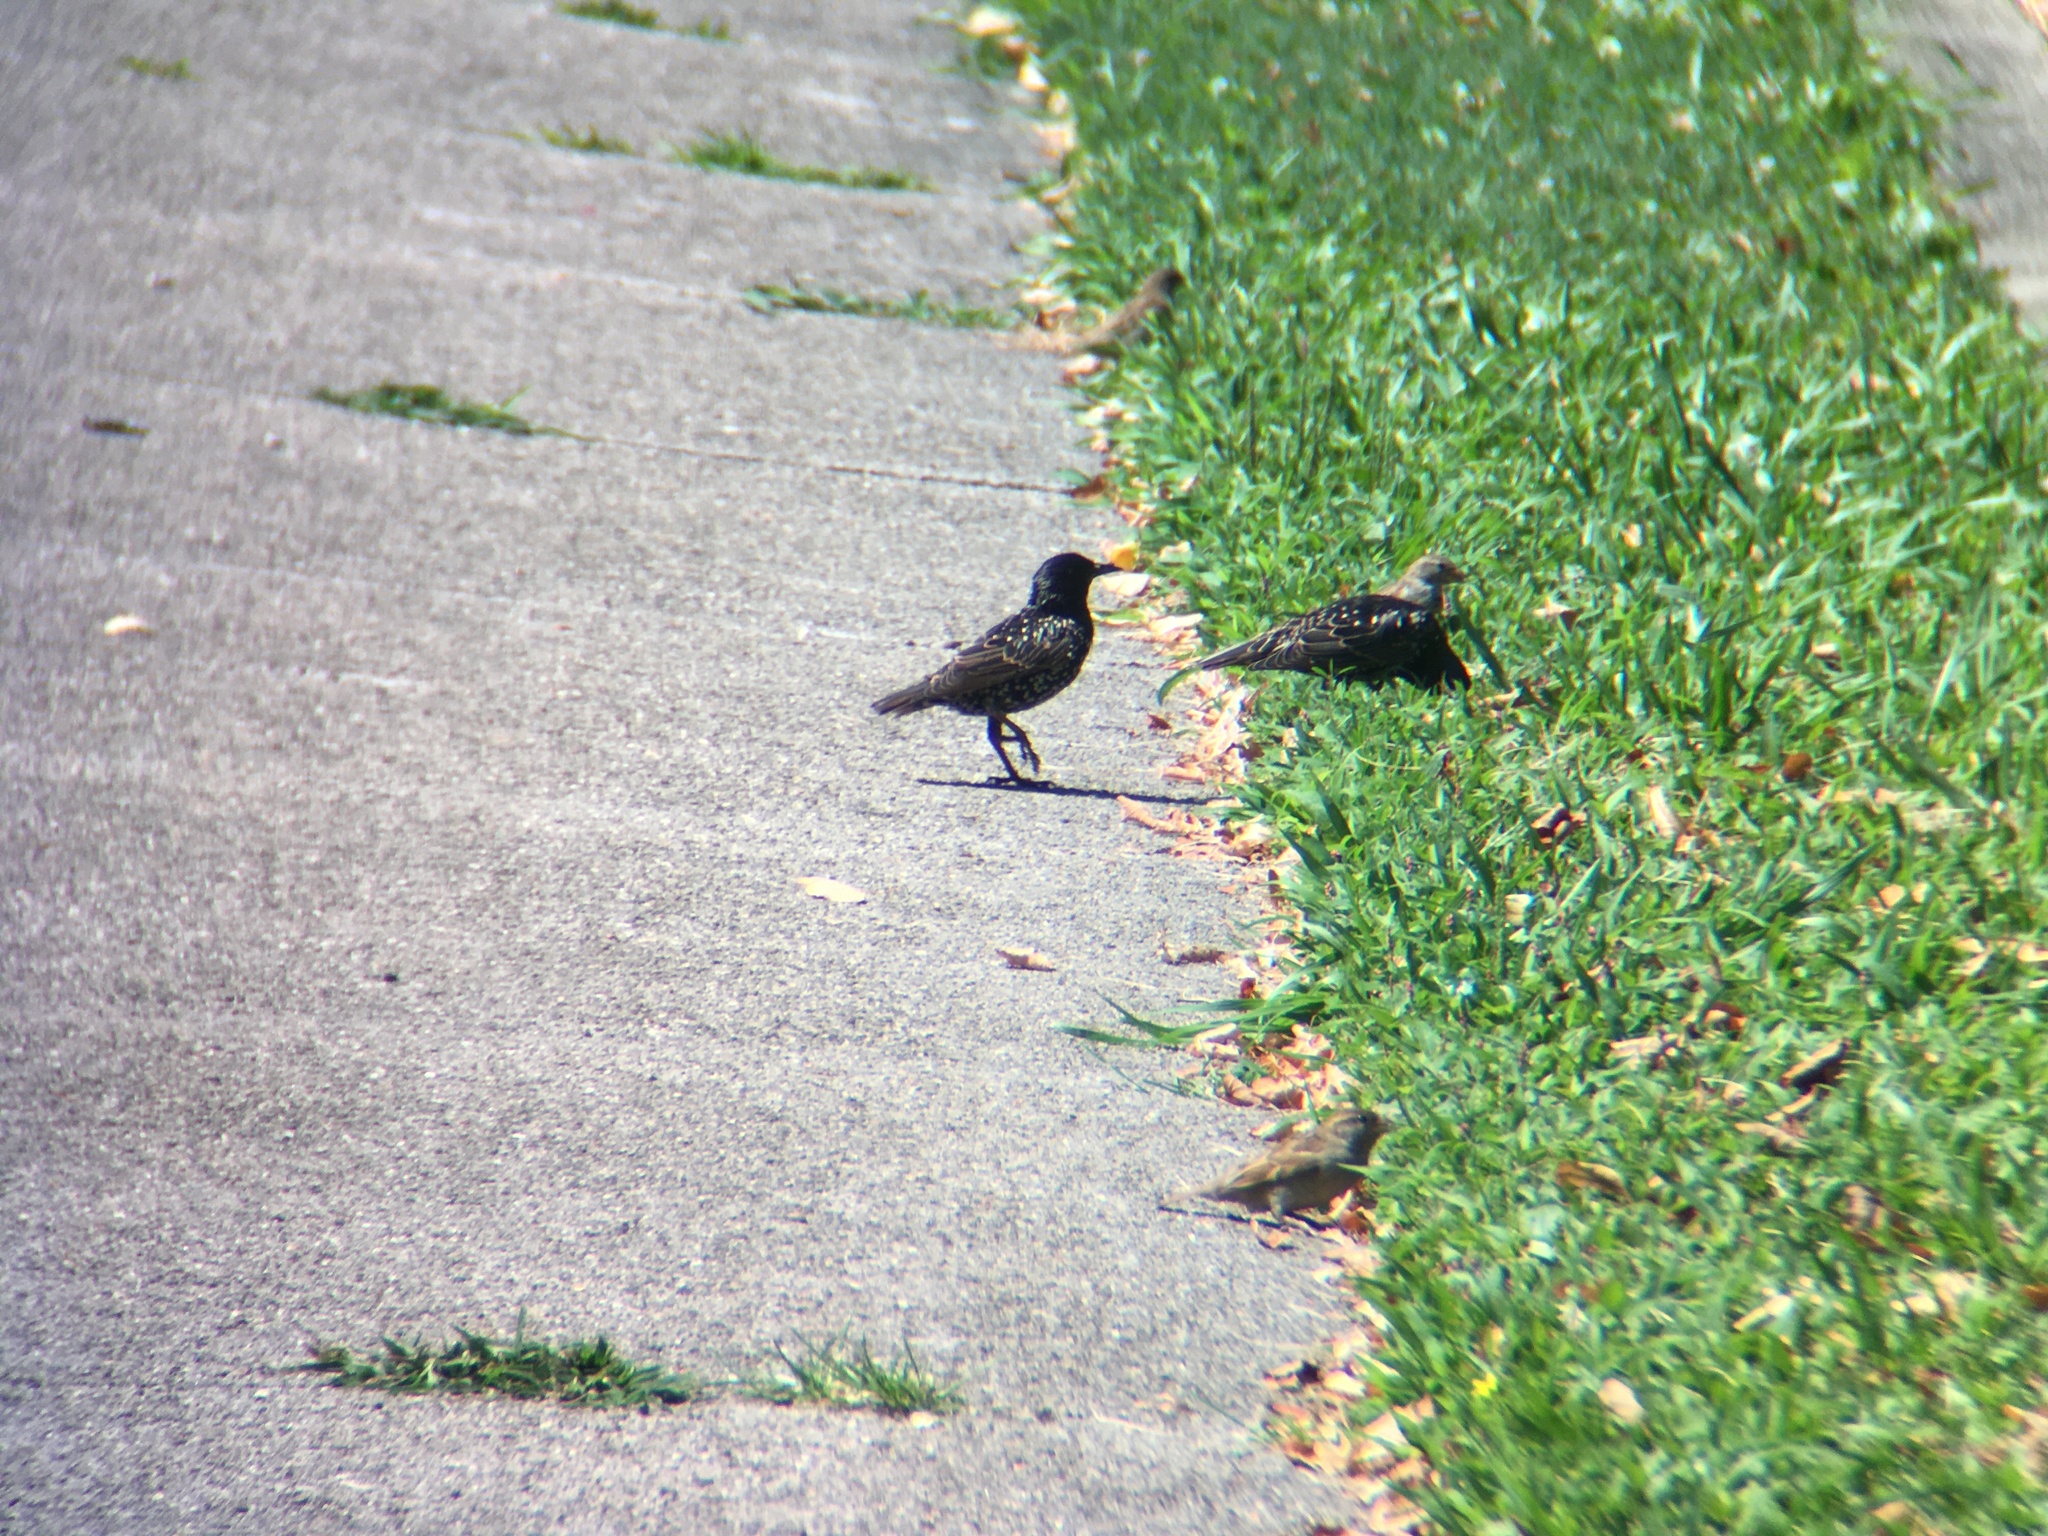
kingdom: Animalia
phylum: Chordata
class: Aves
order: Passeriformes
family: Sturnidae
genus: Sturnus
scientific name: Sturnus vulgaris
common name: Common starling
